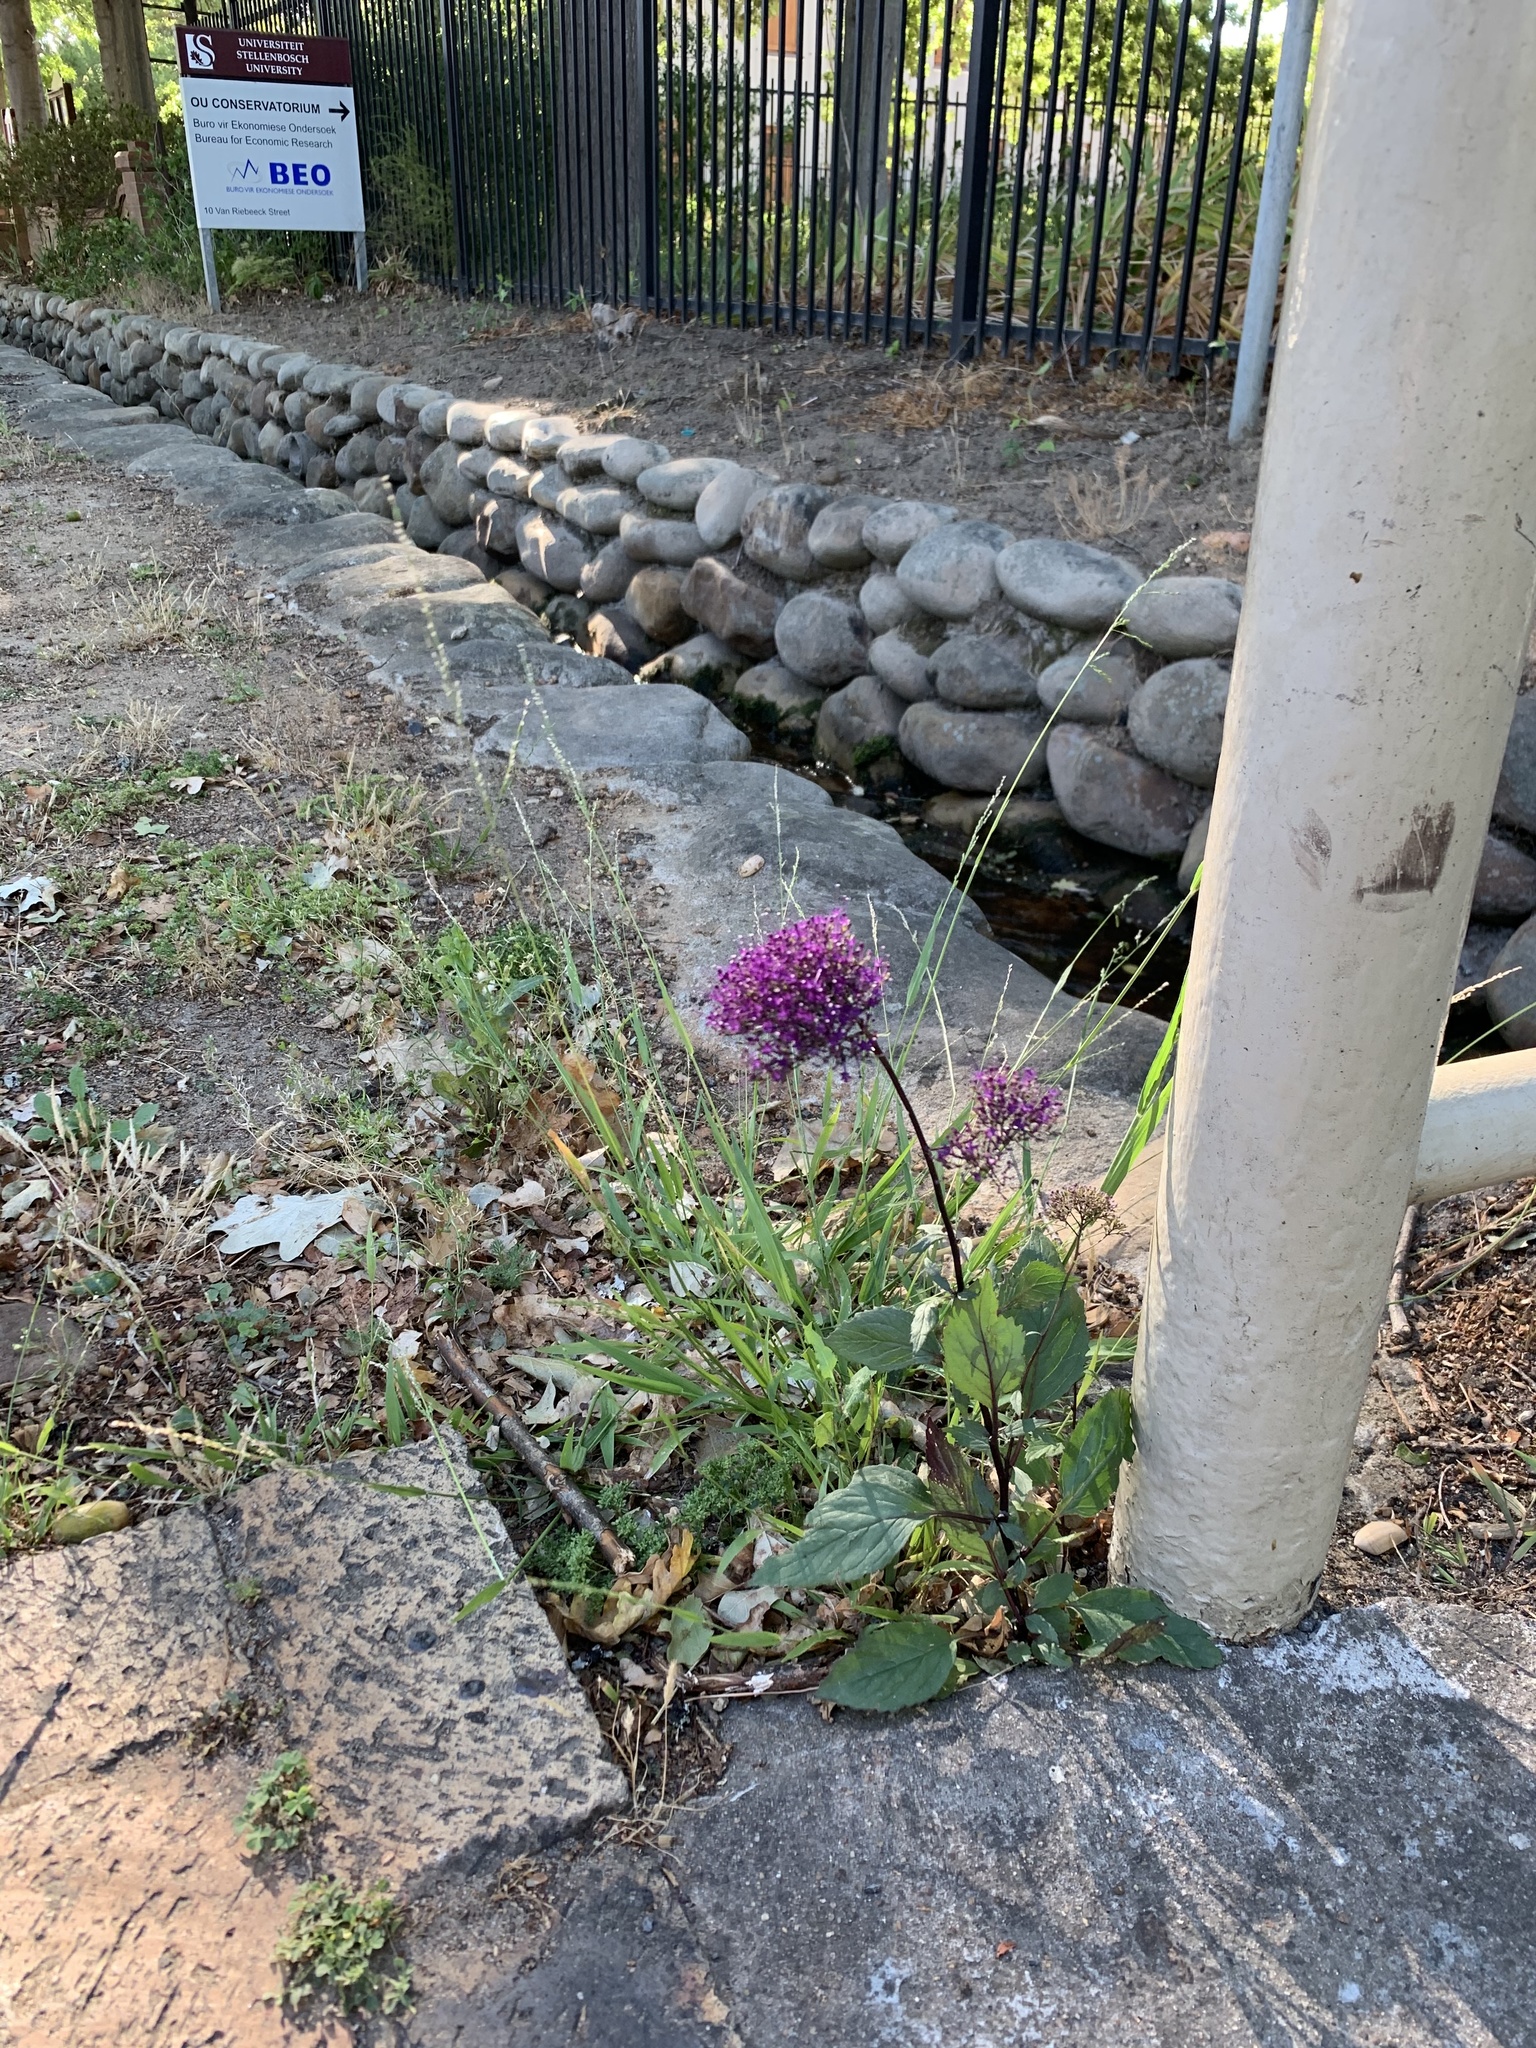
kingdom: Plantae
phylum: Tracheophyta
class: Magnoliopsida
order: Asterales
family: Campanulaceae
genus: Trachelium
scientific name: Trachelium caeruleum
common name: Throatwort
